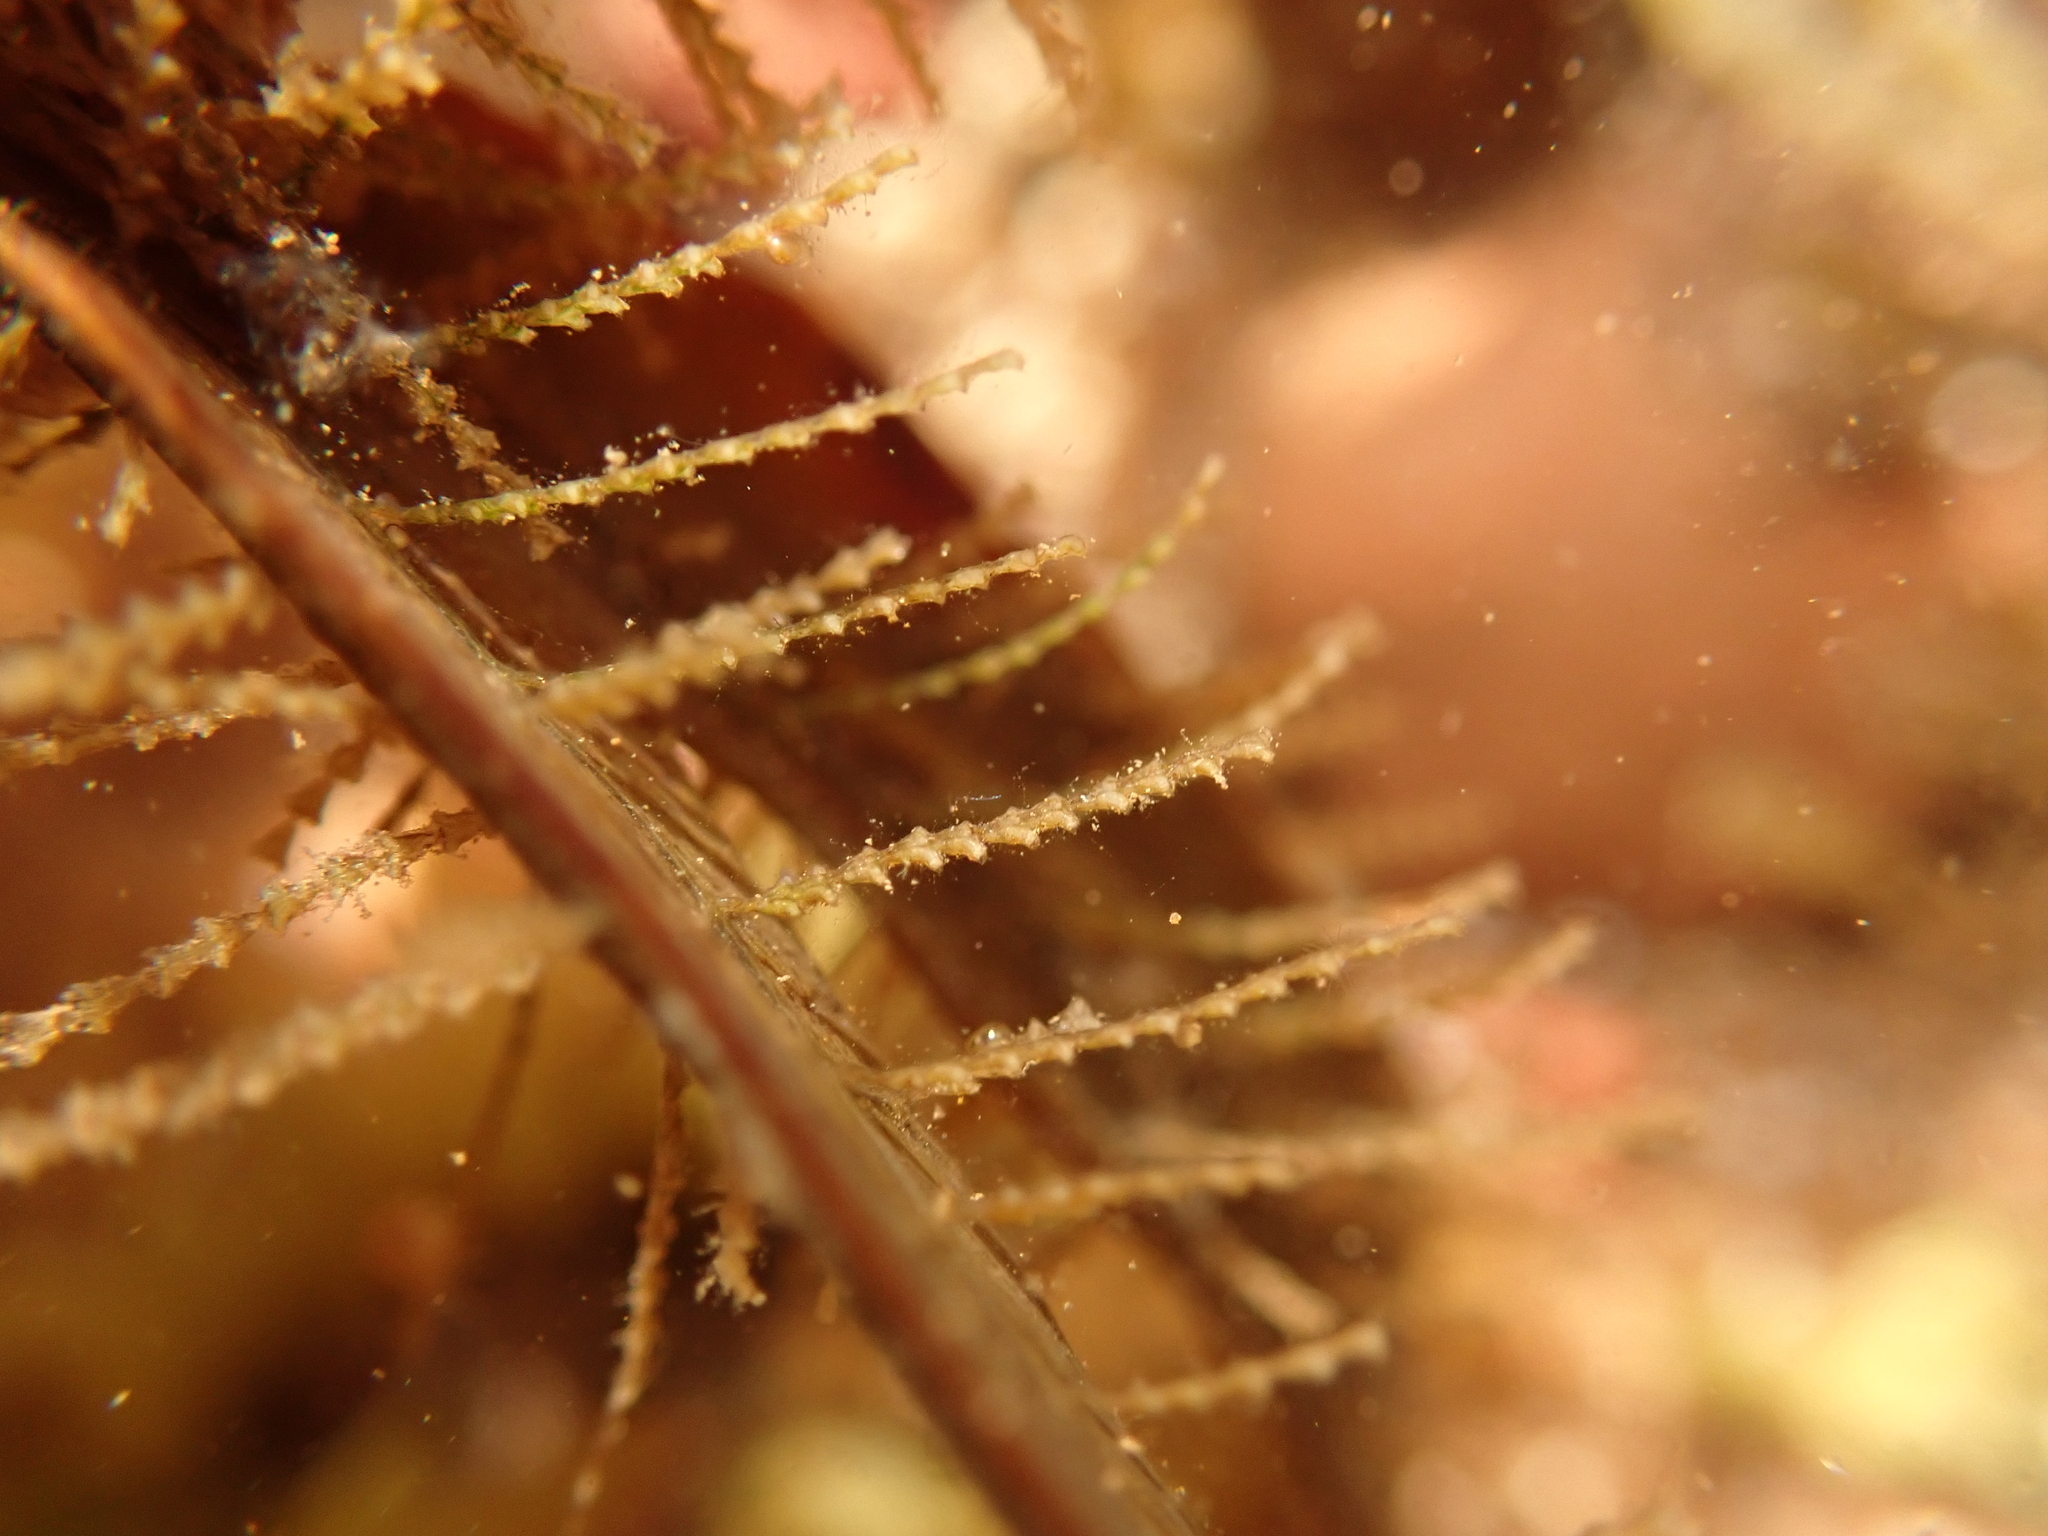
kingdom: Animalia
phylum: Cnidaria
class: Hydrozoa
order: Leptothecata
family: Sertulariidae
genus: Dynamena
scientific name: Dynamena pumila
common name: Sea oak
